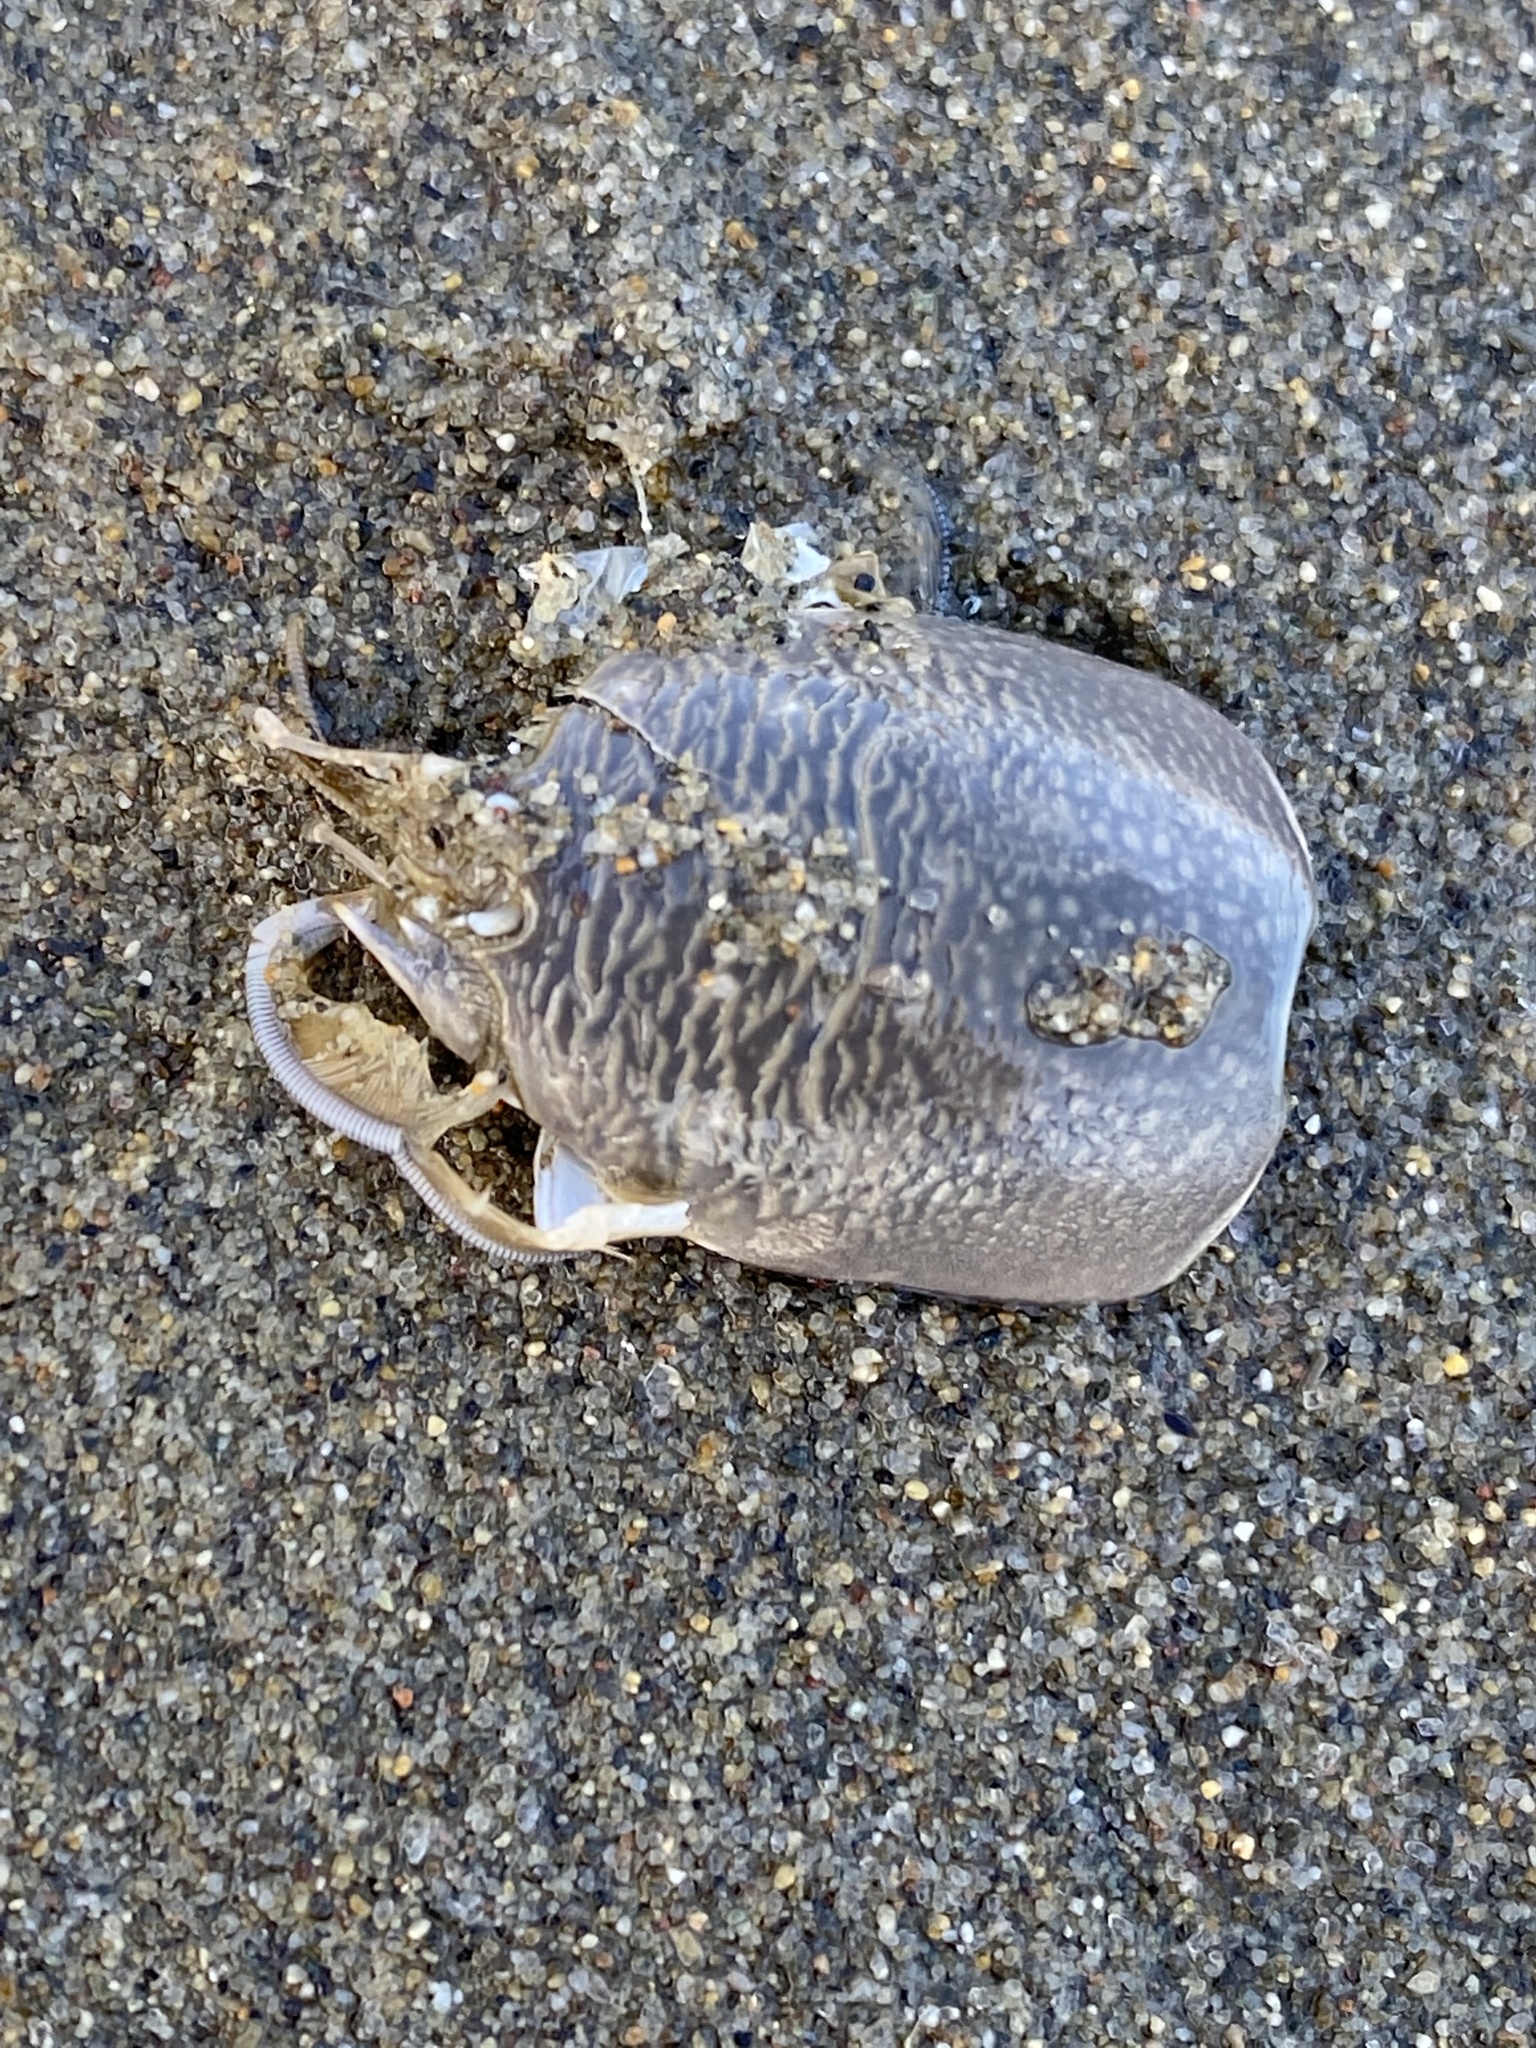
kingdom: Animalia
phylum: Arthropoda
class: Malacostraca
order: Decapoda
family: Hippidae
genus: Emerita
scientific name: Emerita analoga
